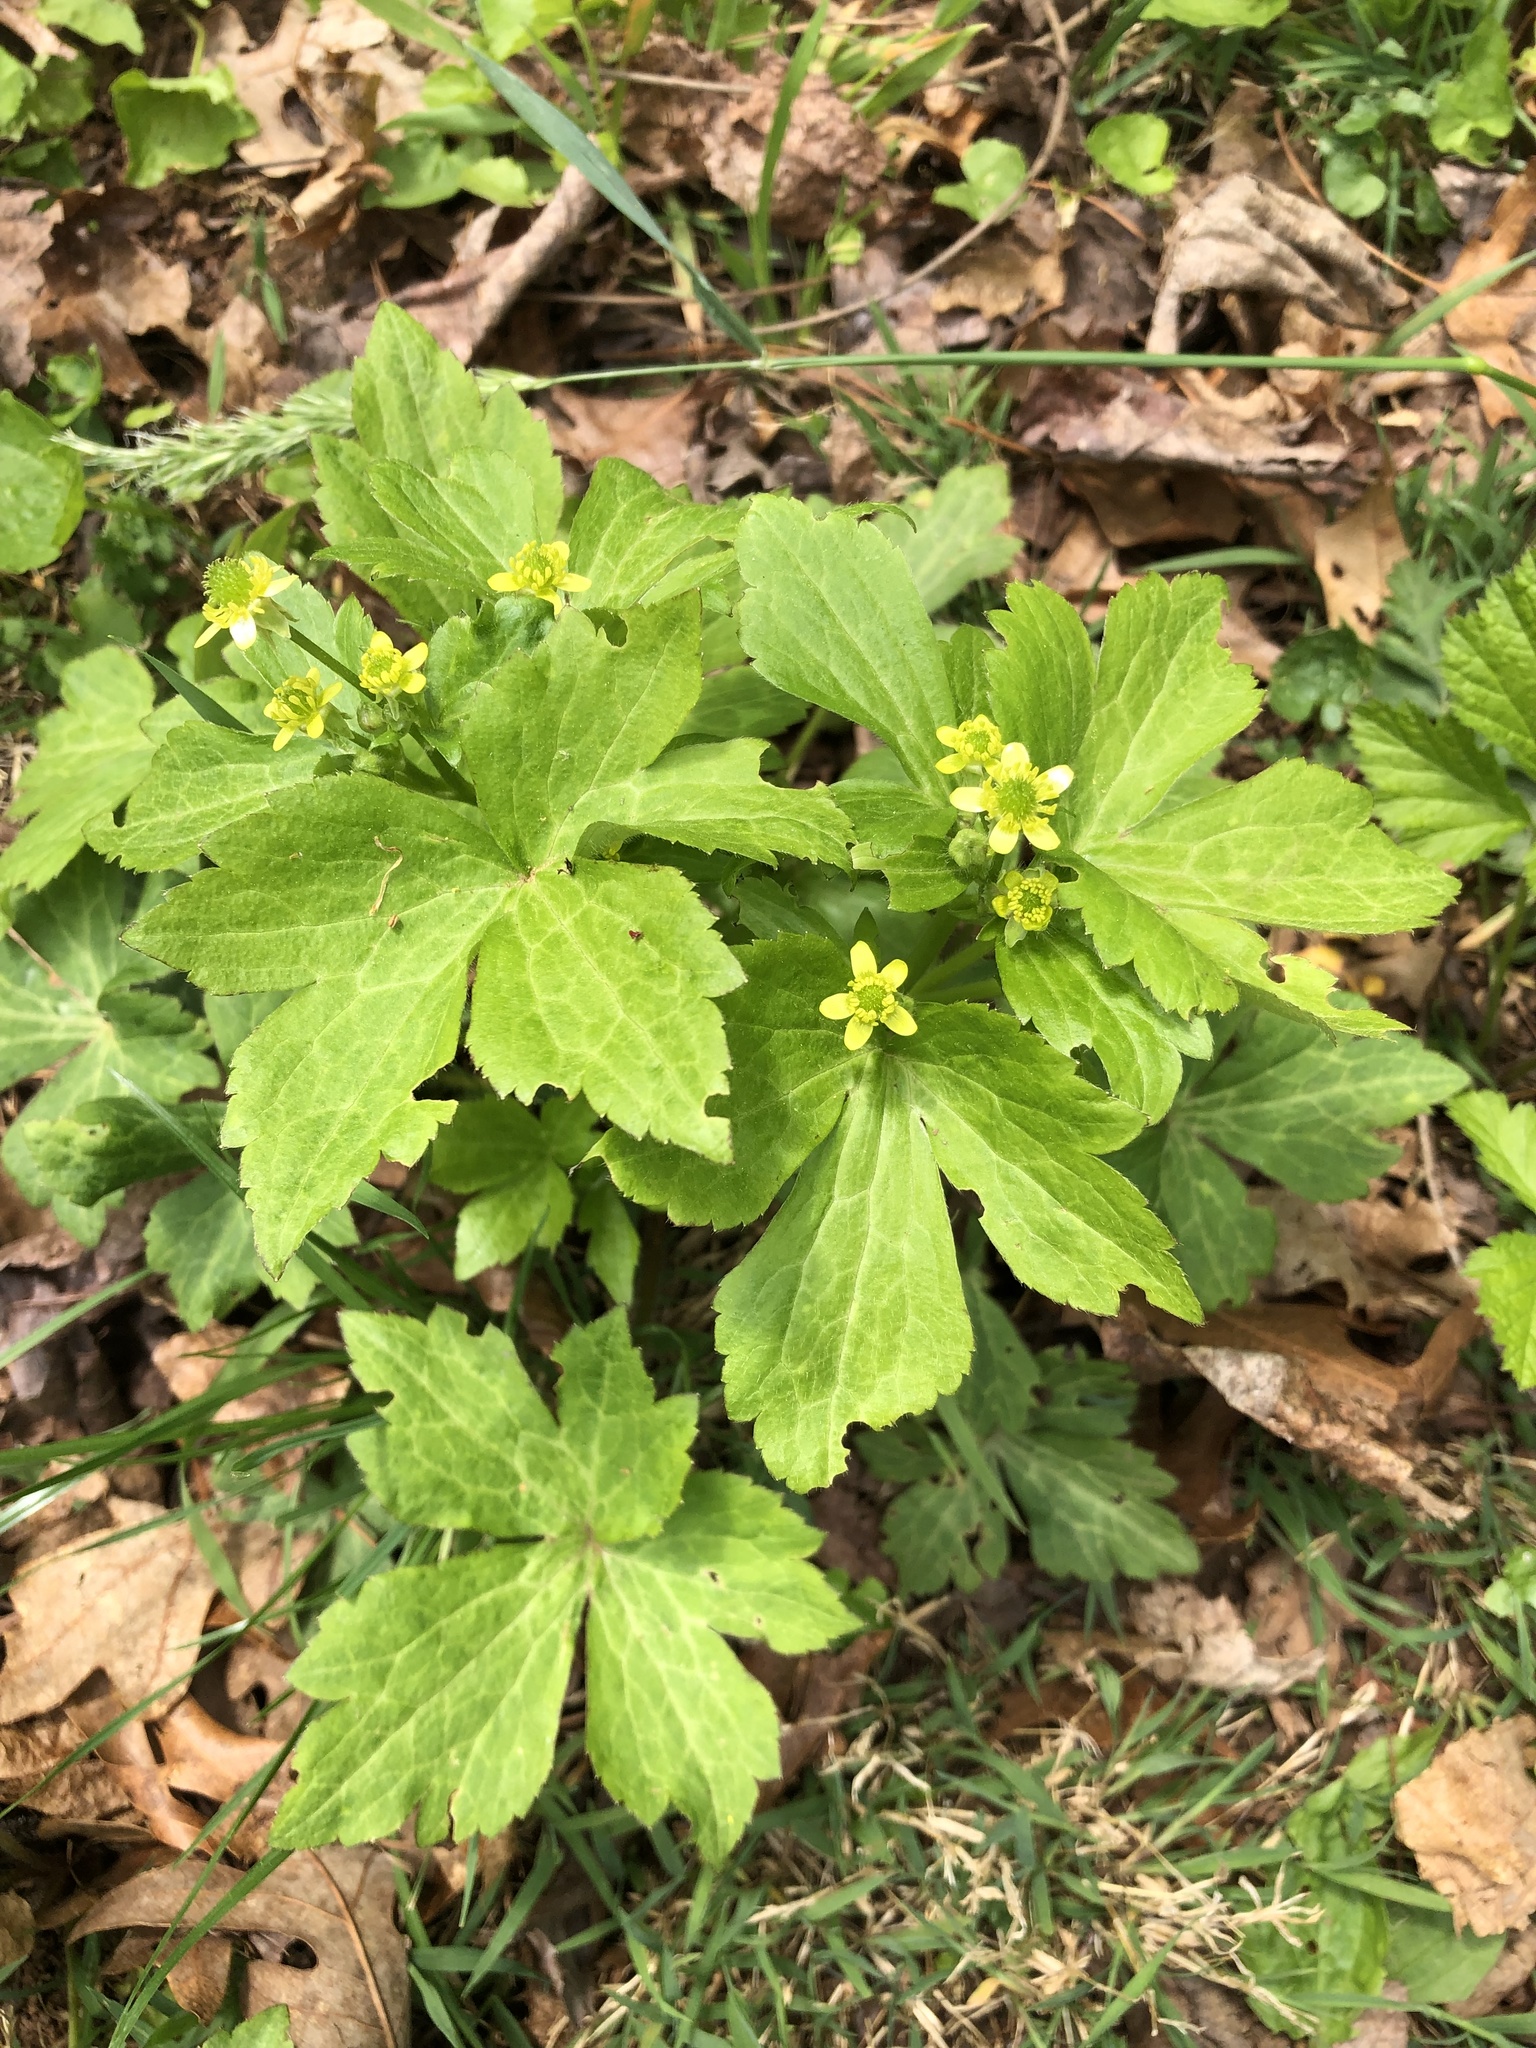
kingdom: Plantae
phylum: Tracheophyta
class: Magnoliopsida
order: Ranunculales
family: Ranunculaceae
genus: Ranunculus
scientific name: Ranunculus recurvatus
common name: Blisterwort
